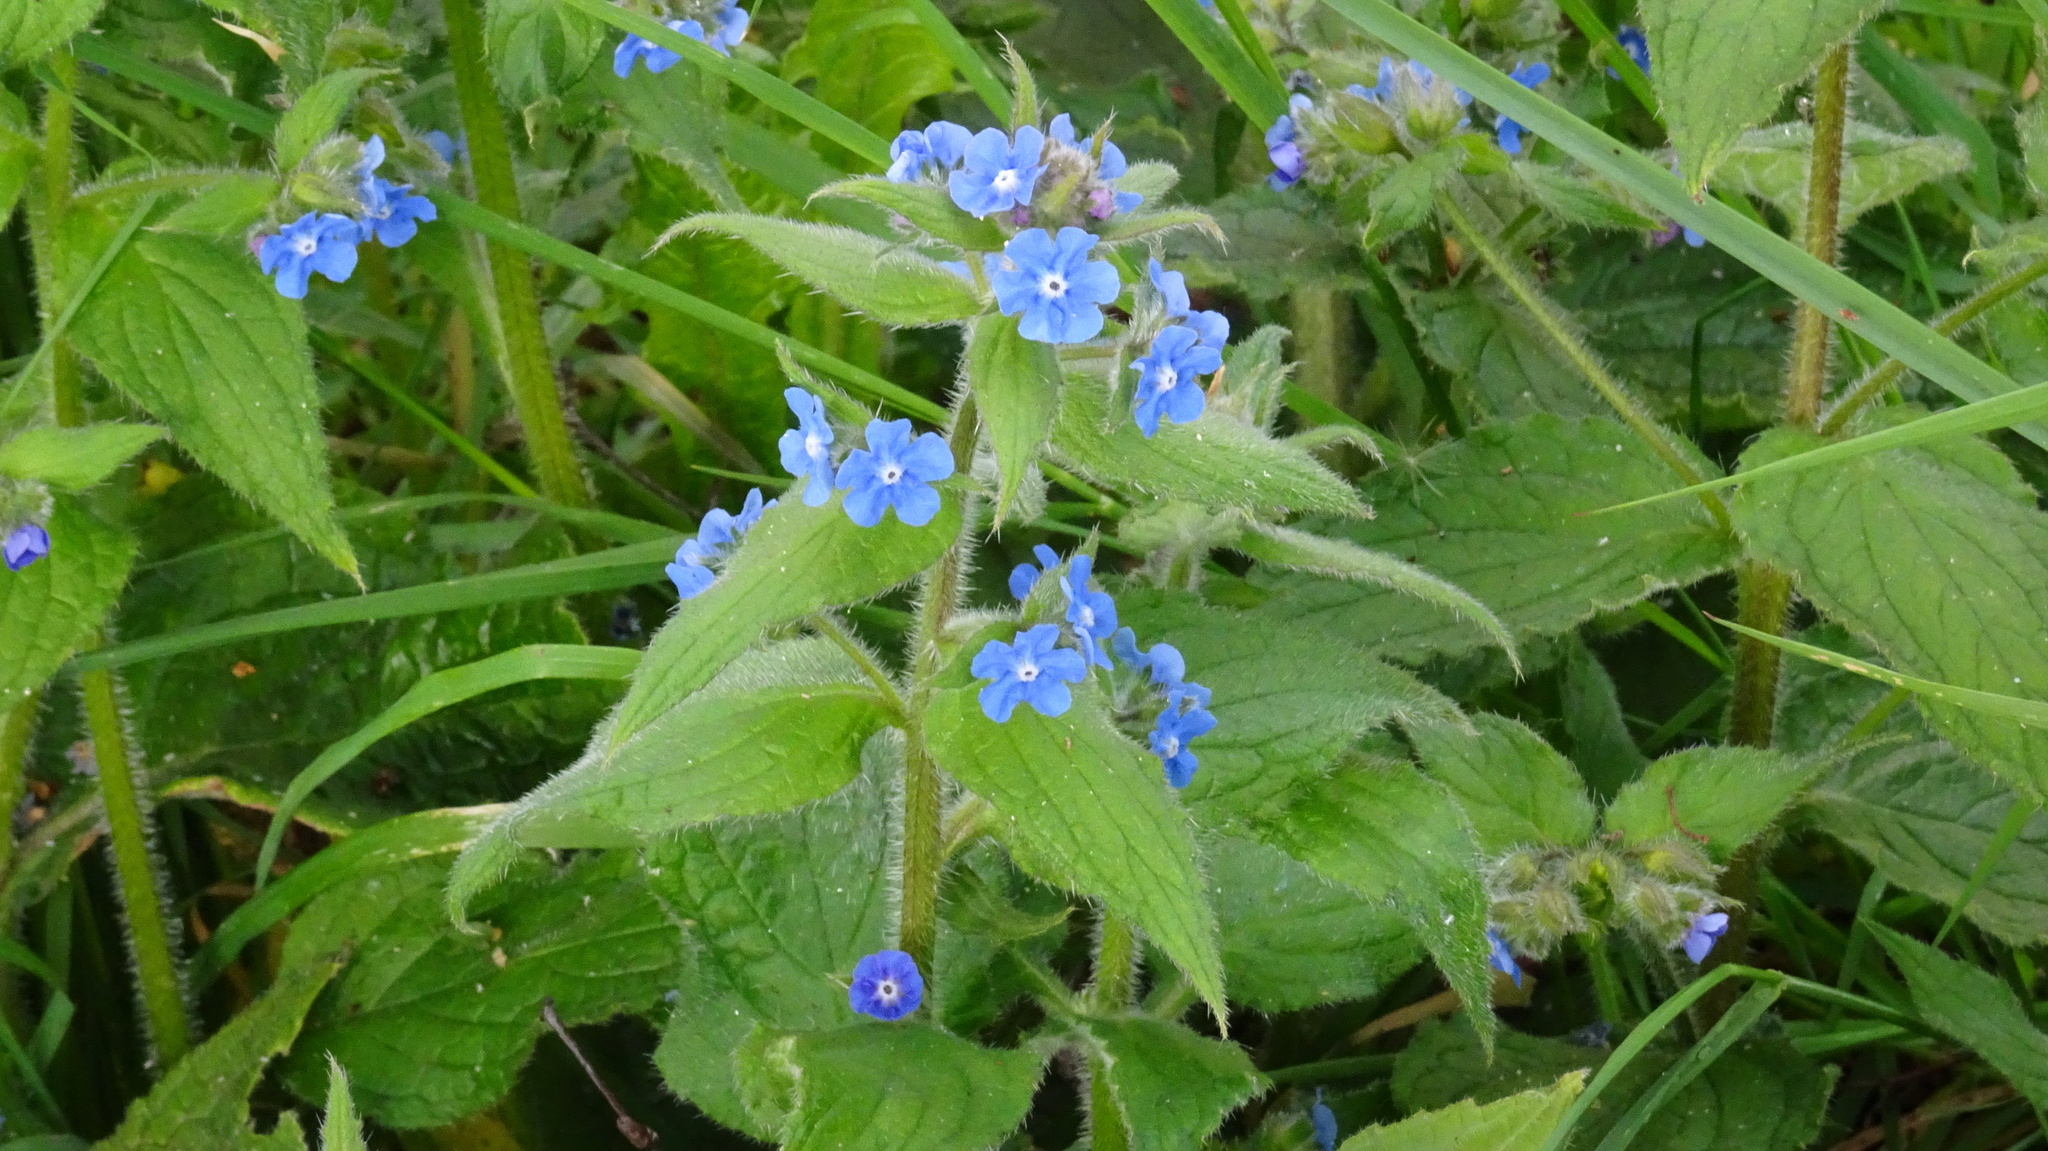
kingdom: Plantae
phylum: Tracheophyta
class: Magnoliopsida
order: Boraginales
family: Boraginaceae
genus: Pentaglottis
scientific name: Pentaglottis sempervirens
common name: Green alkanet
